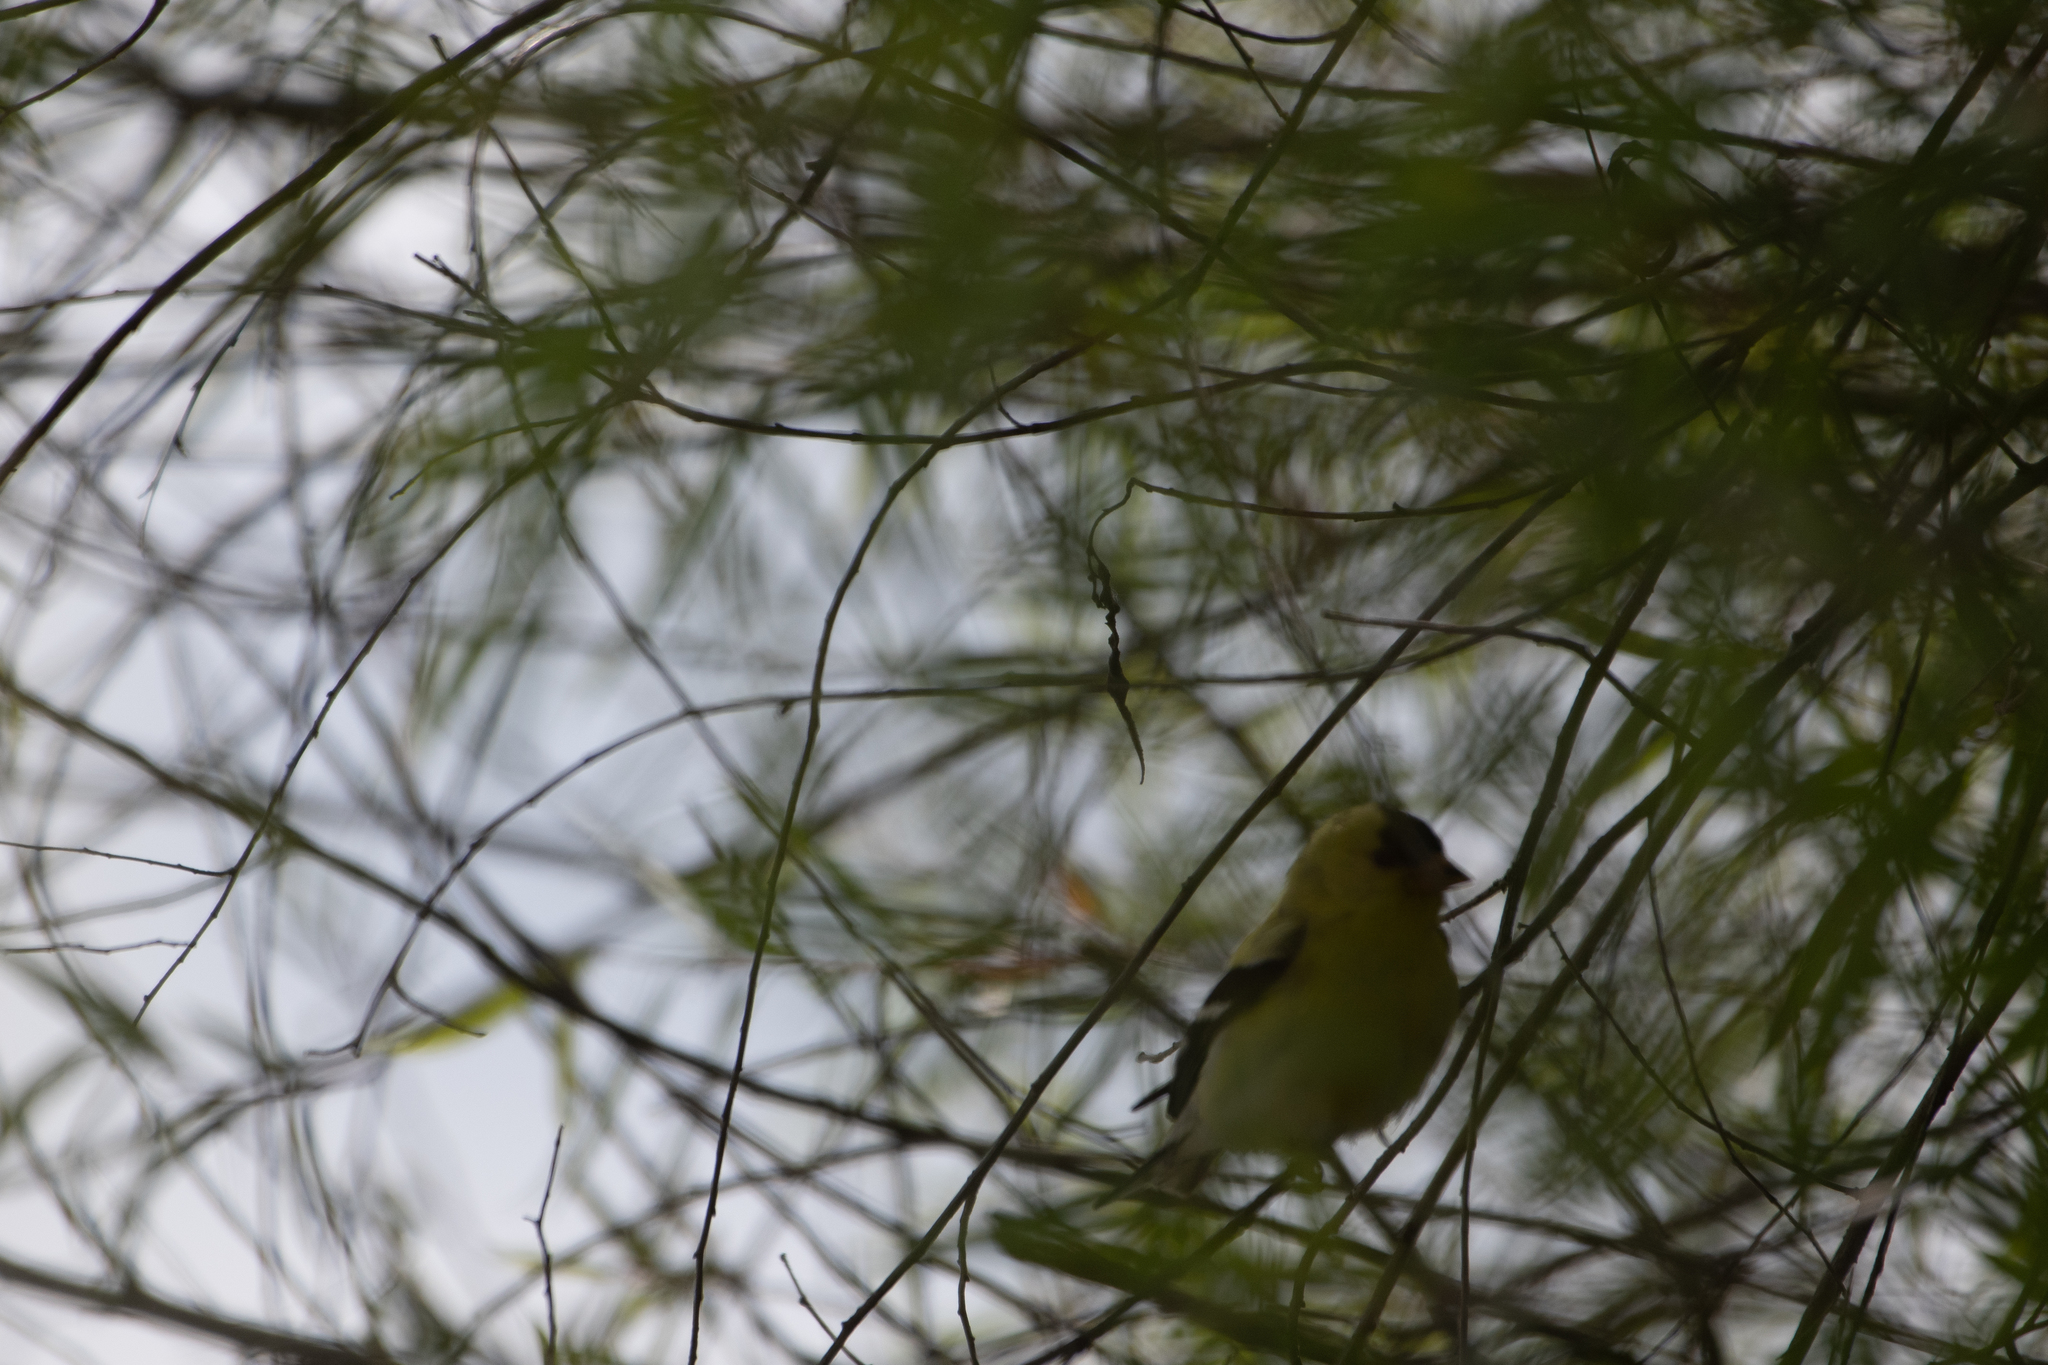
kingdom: Animalia
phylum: Chordata
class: Aves
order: Passeriformes
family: Fringillidae
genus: Spinus
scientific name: Spinus tristis
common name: American goldfinch
